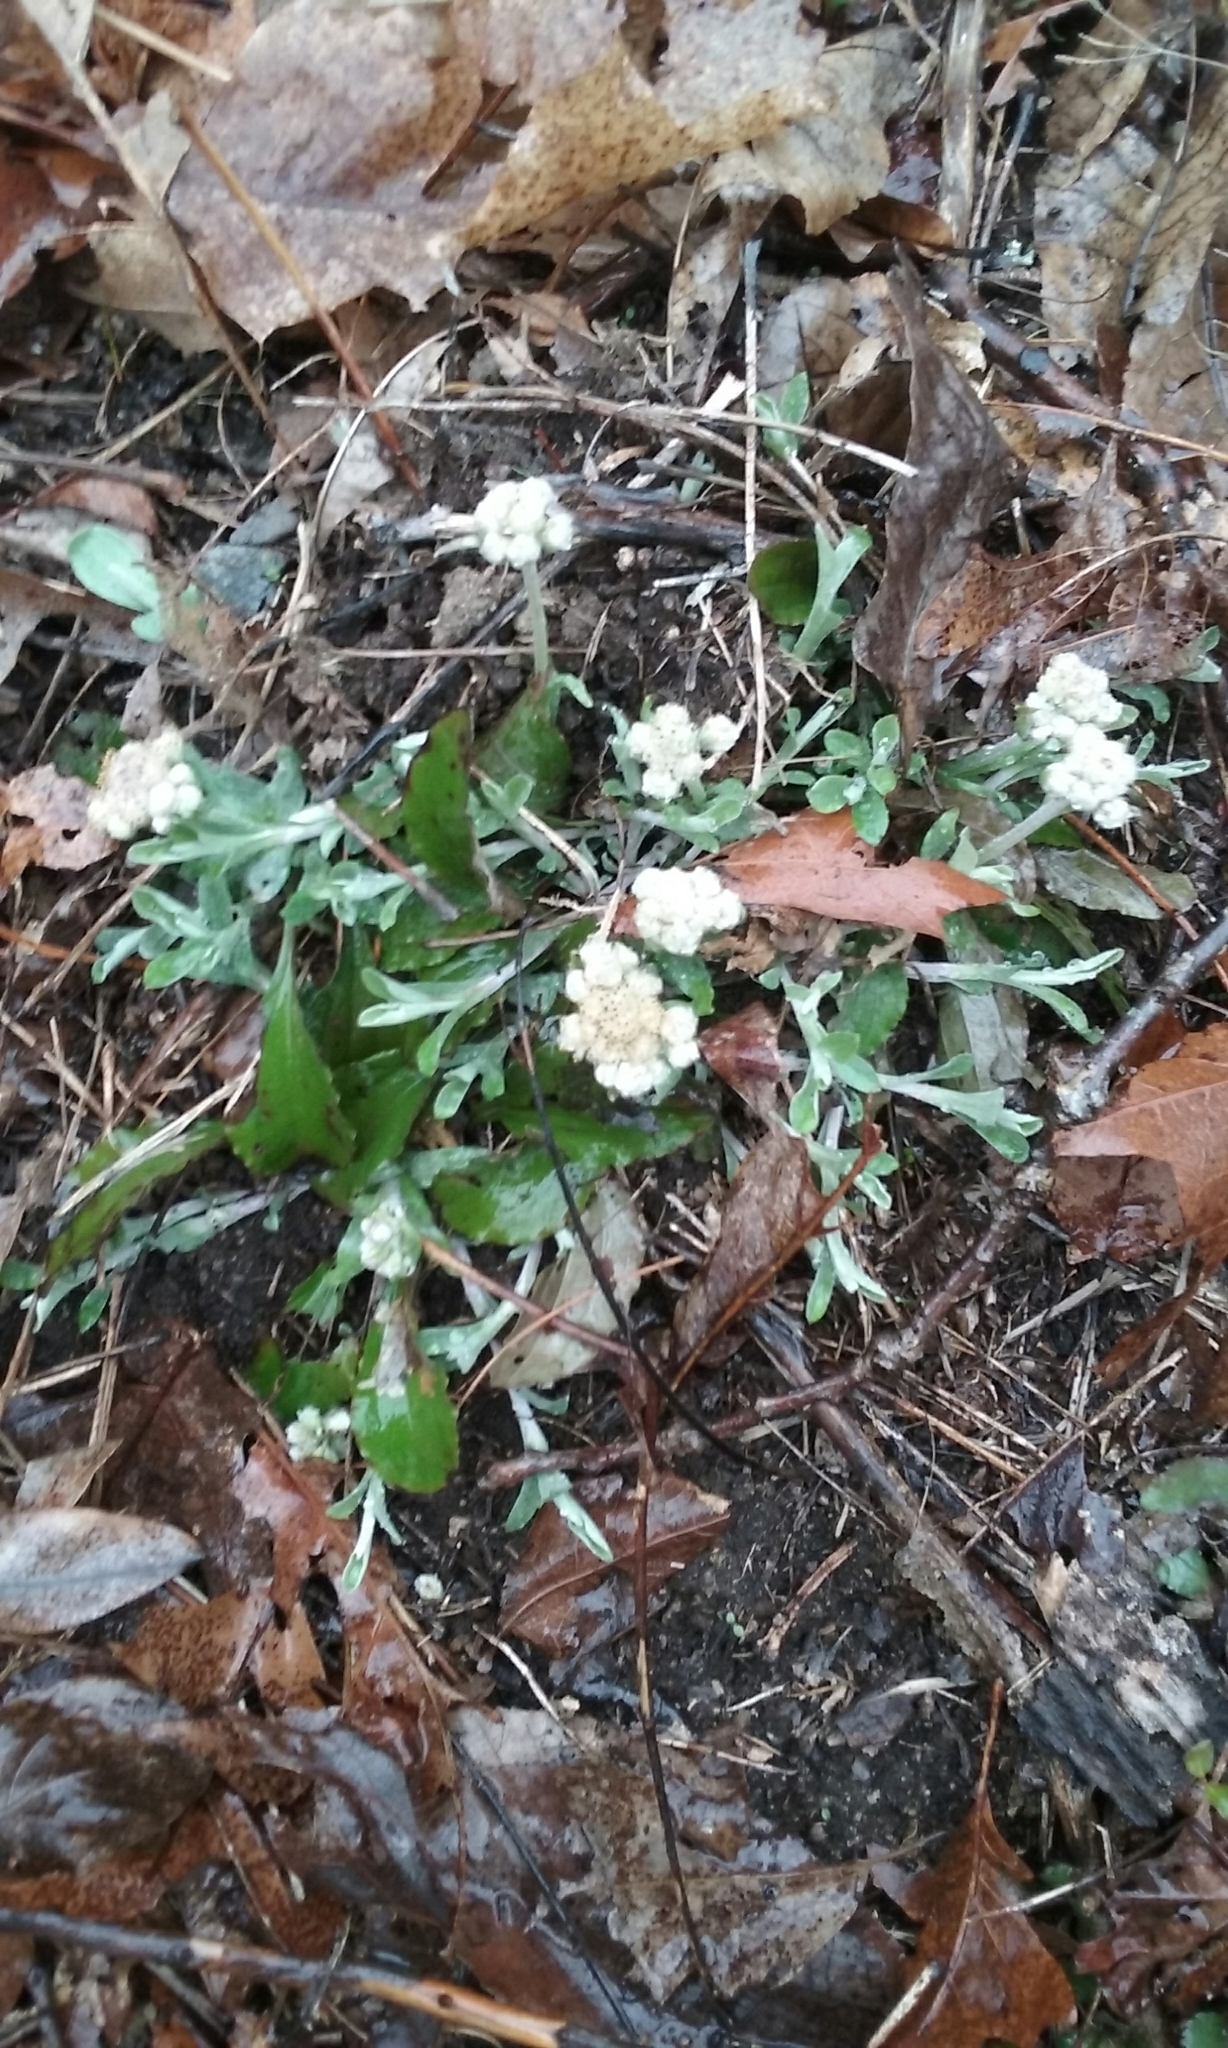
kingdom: Plantae
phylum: Tracheophyta
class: Magnoliopsida
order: Asterales
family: Asteraceae
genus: Antennaria
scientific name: Antennaria
